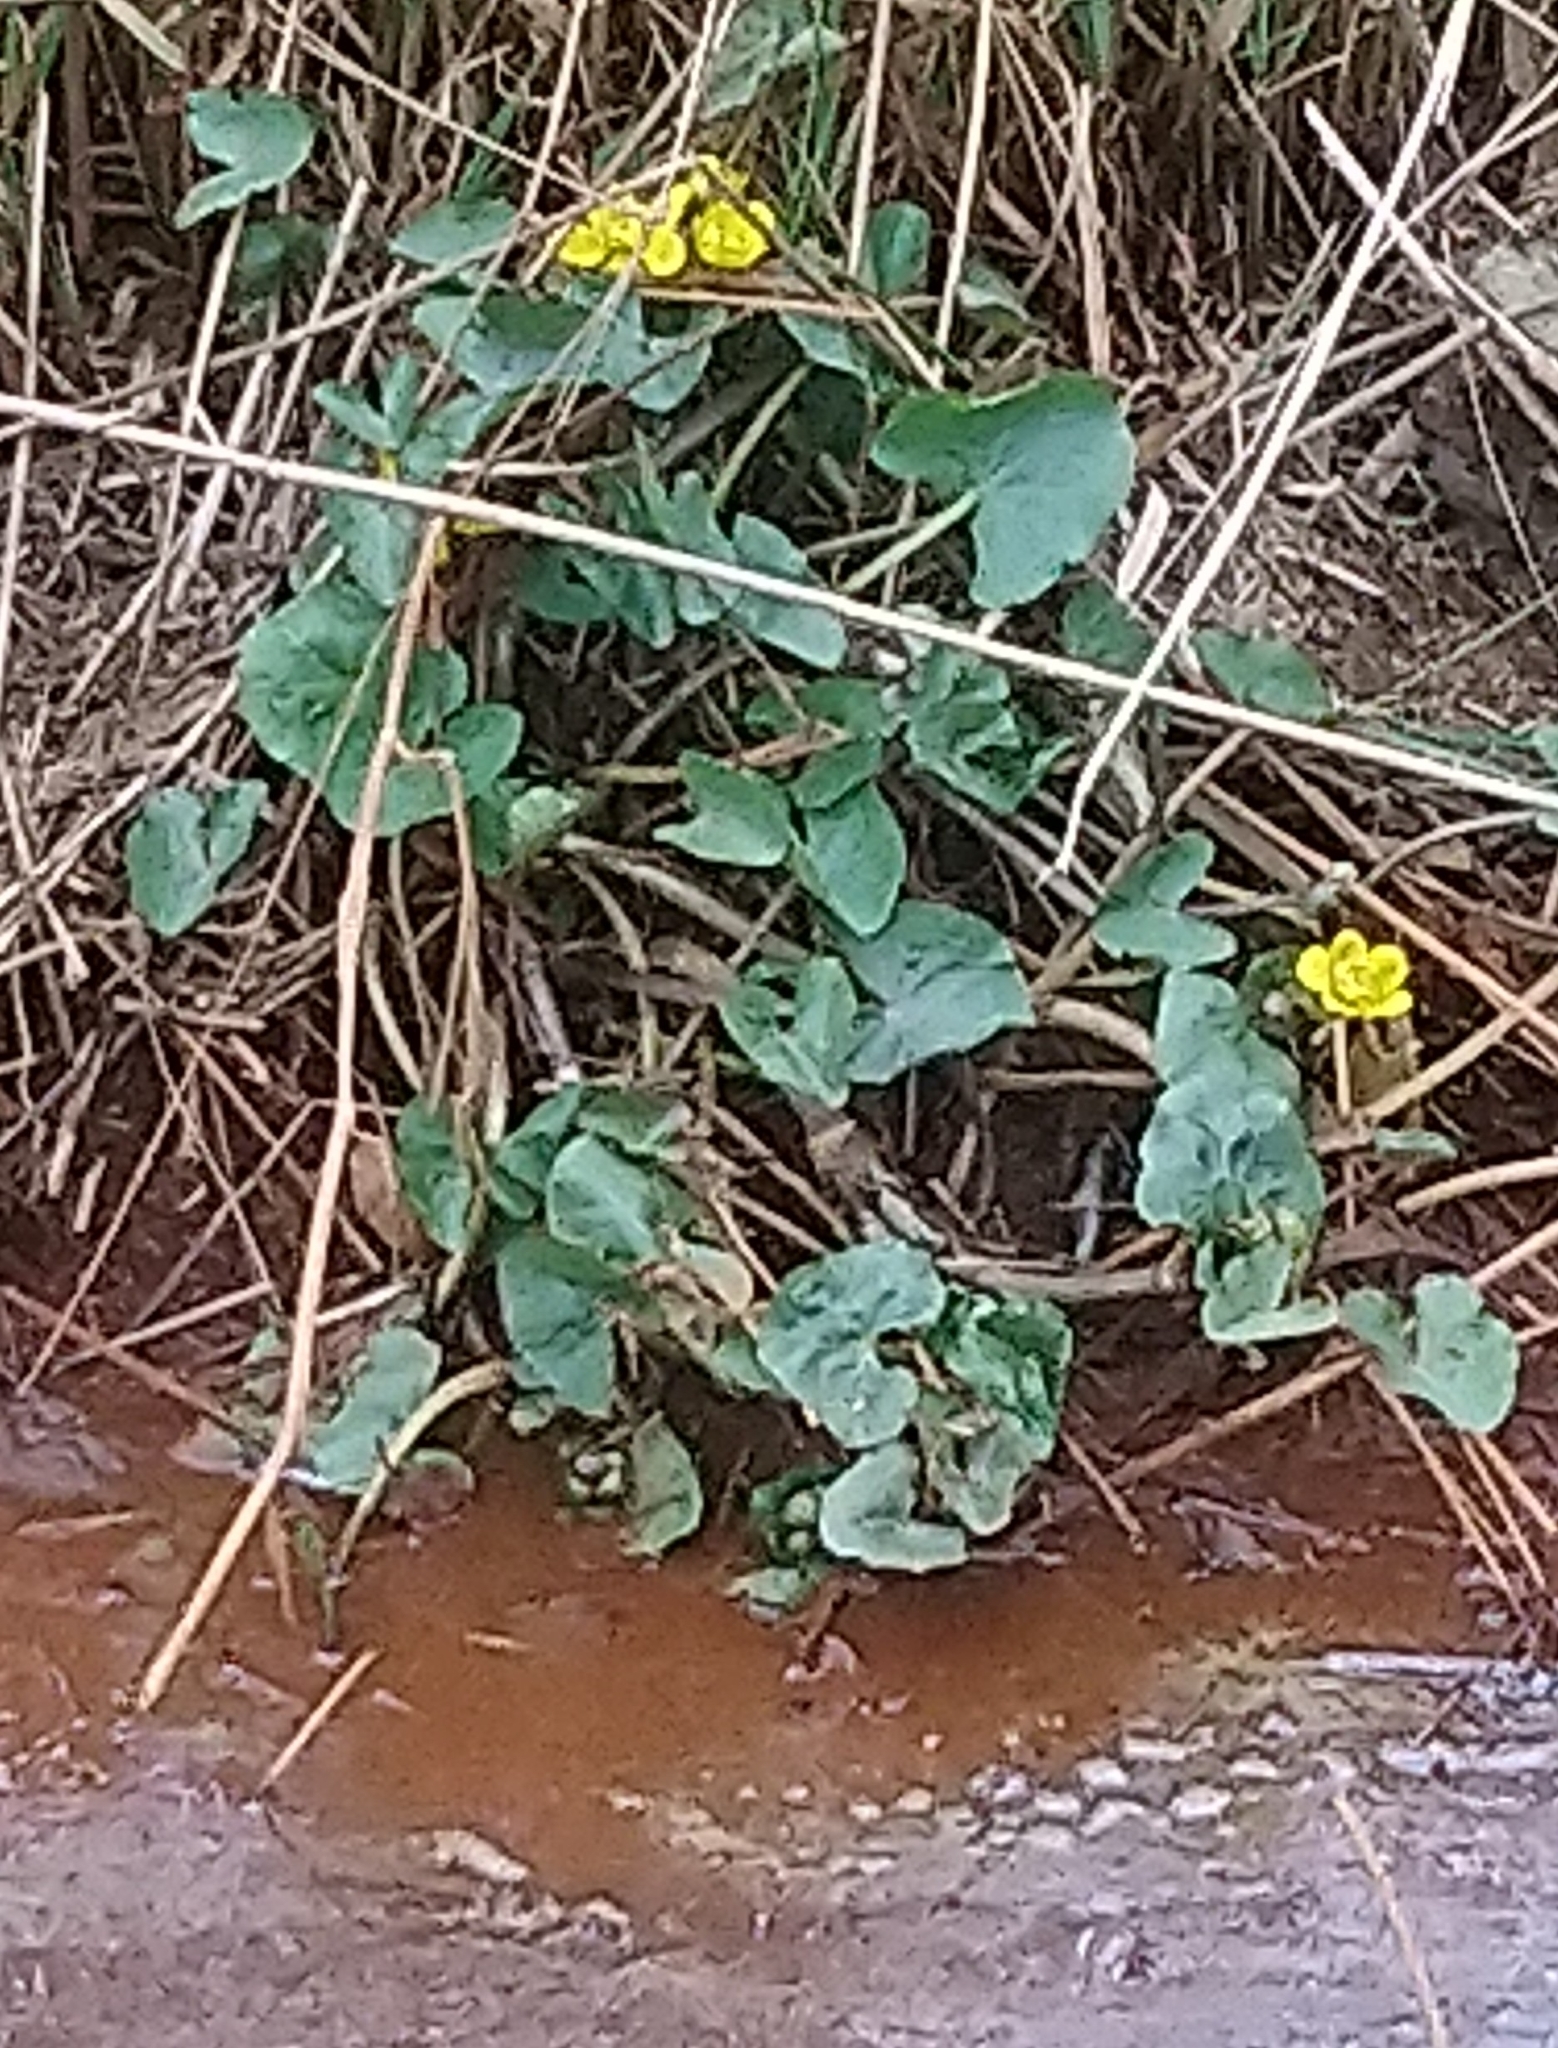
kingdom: Plantae
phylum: Tracheophyta
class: Magnoliopsida
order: Ranunculales
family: Ranunculaceae
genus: Caltha
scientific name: Caltha palustris
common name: Marsh marigold
